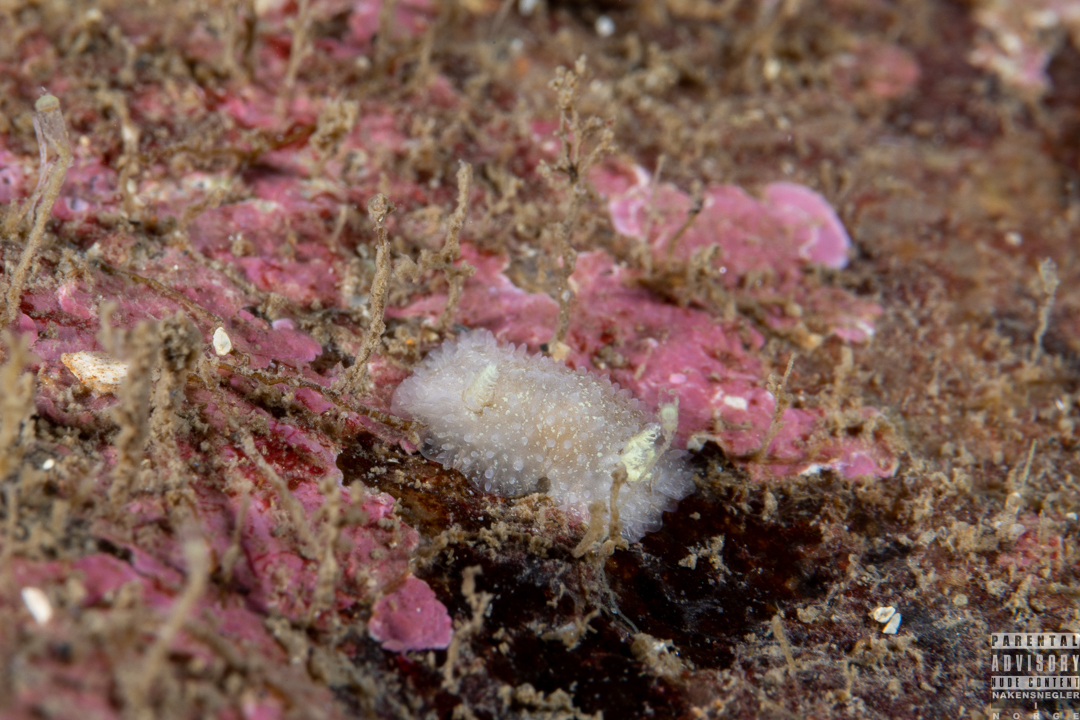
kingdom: Animalia
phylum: Mollusca
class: Gastropoda
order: Nudibranchia
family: Onchidorididae
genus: Acanthodoris
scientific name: Acanthodoris pilosa
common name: Hairy spiny doris
